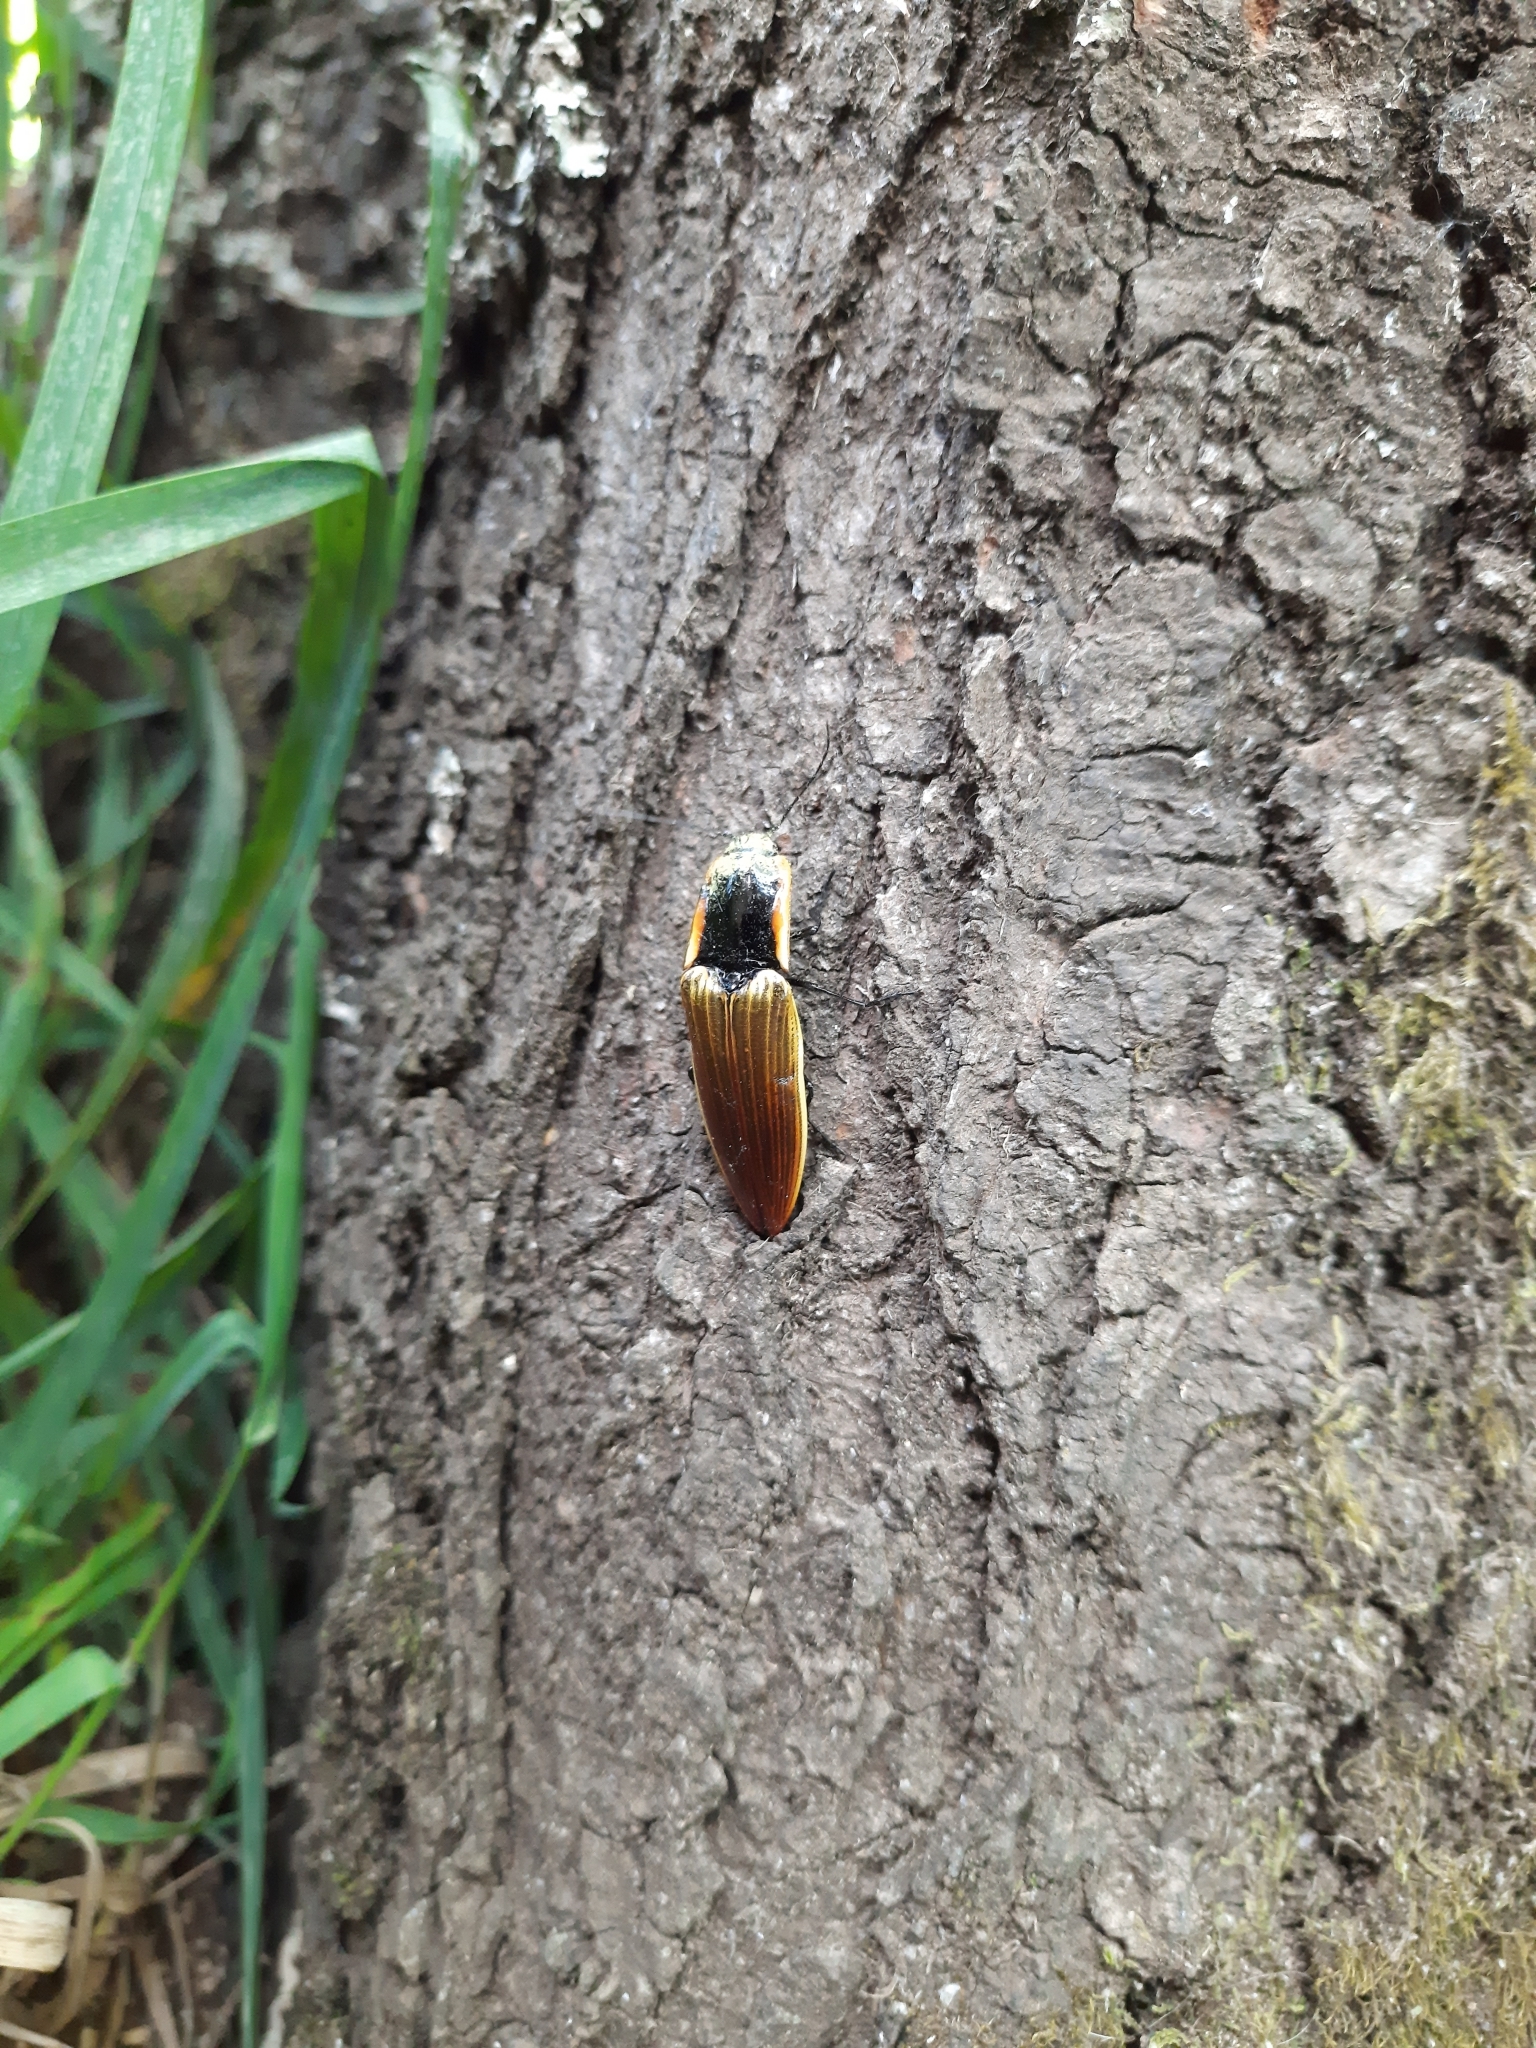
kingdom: Animalia
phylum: Arthropoda
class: Insecta
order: Coleoptera
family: Elateridae
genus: Semiotus
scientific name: Semiotus
